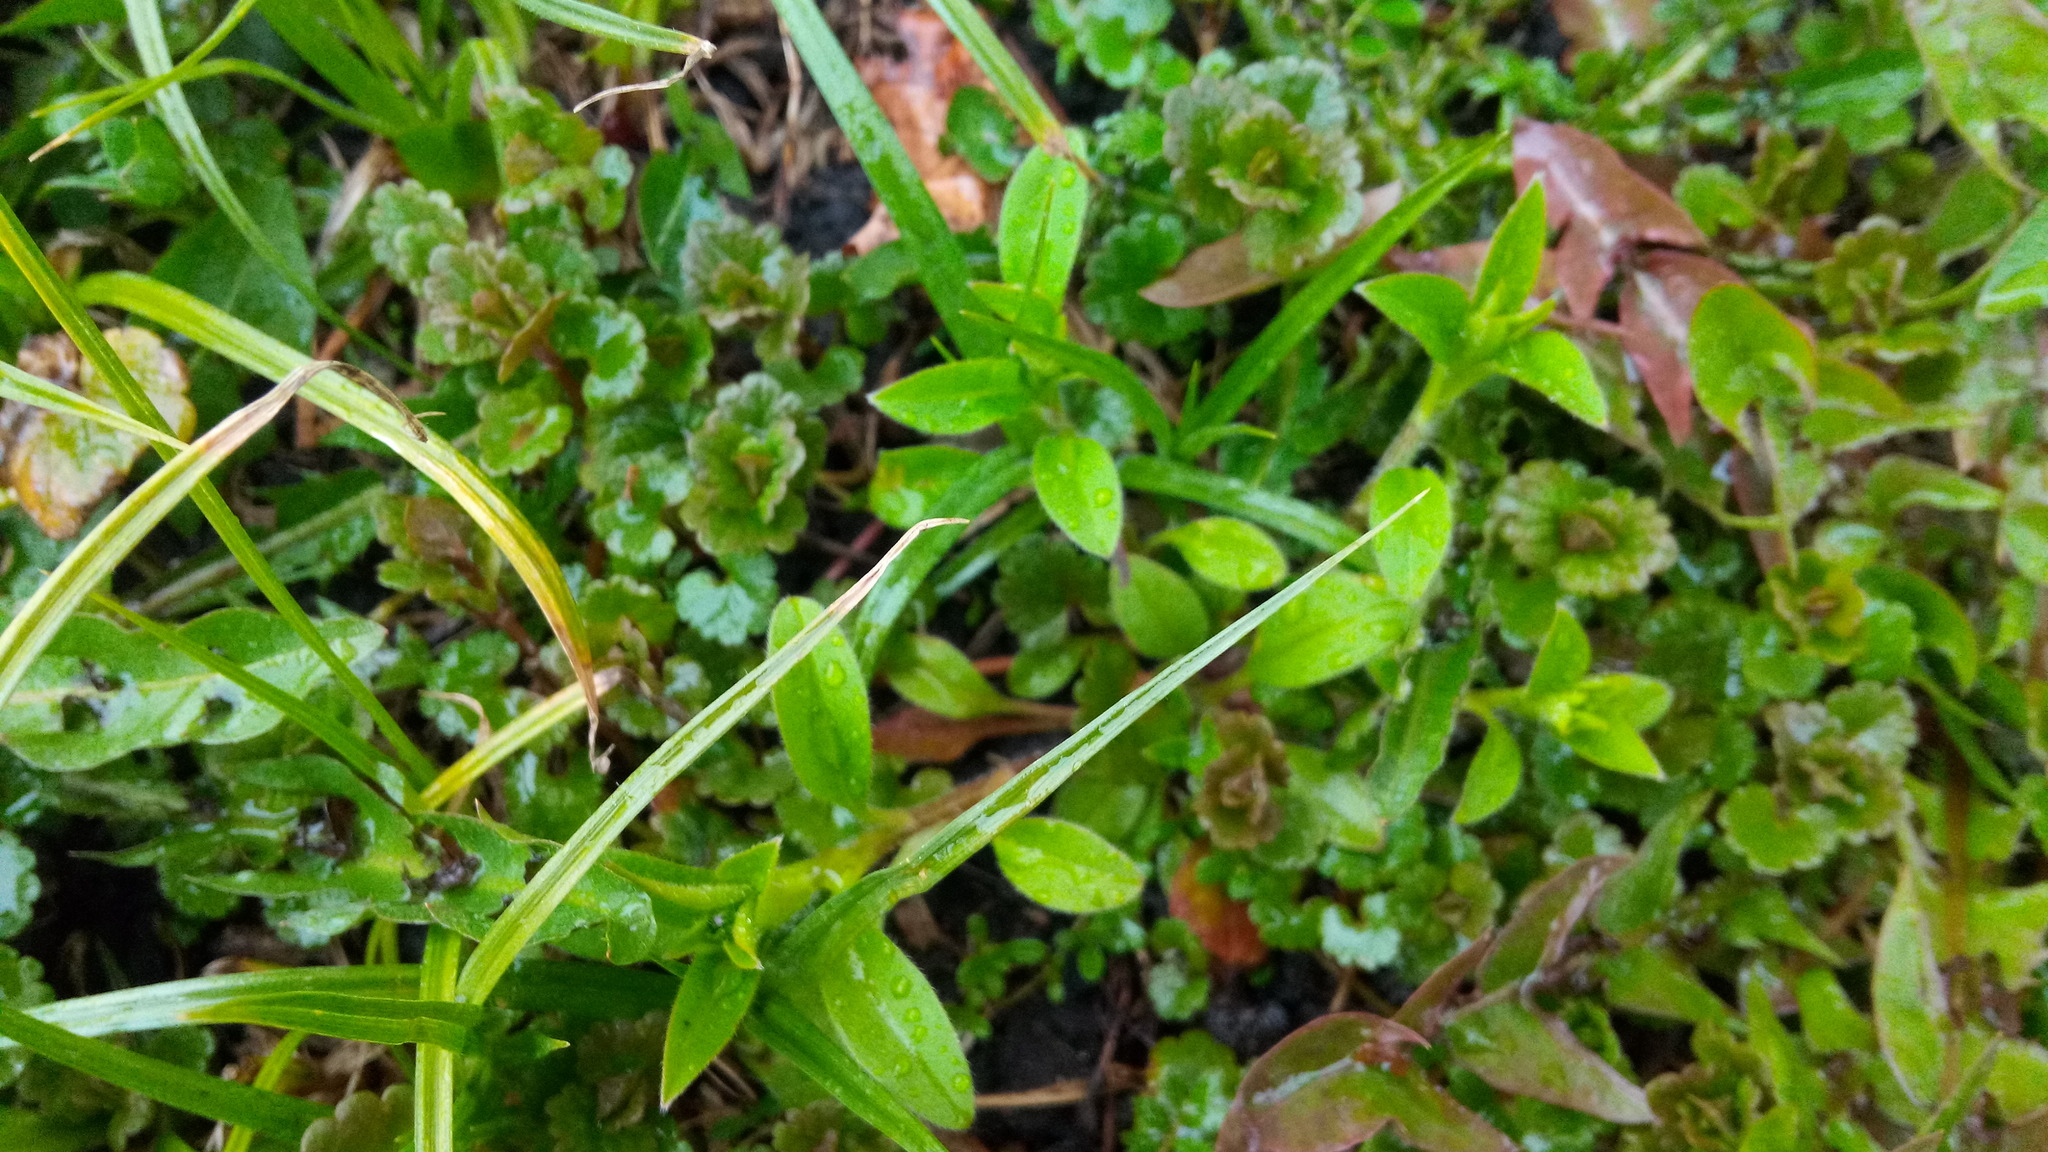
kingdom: Plantae
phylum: Tracheophyta
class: Magnoliopsida
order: Boraginales
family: Boraginaceae
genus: Myosotis
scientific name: Myosotis sparsiflora
